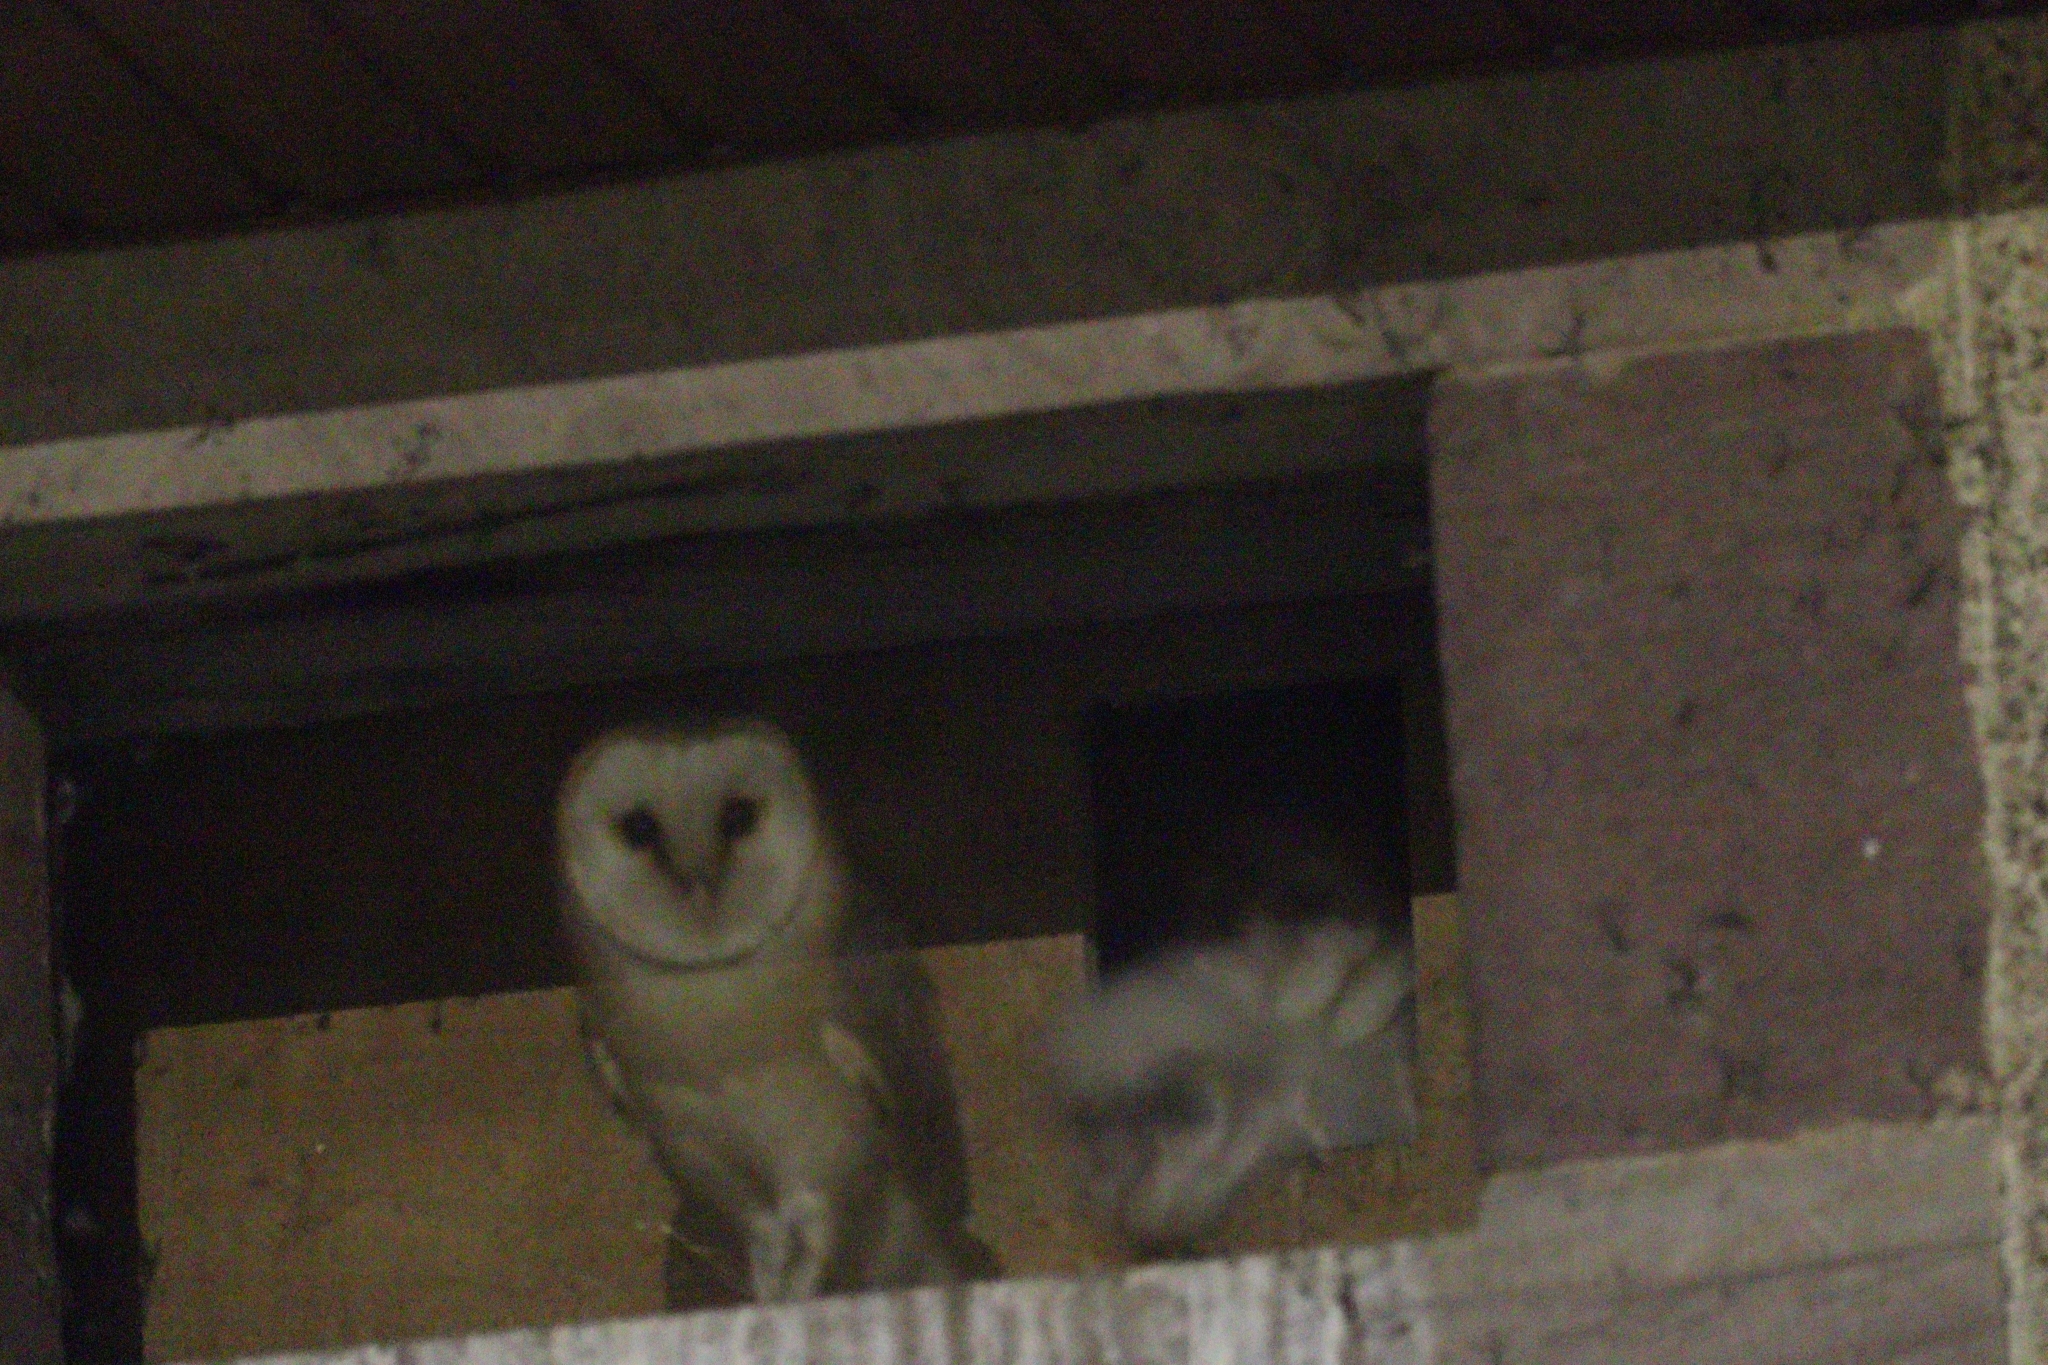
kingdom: Animalia
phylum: Chordata
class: Aves
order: Strigiformes
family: Tytonidae
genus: Tyto
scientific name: Tyto alba
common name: Barn owl
